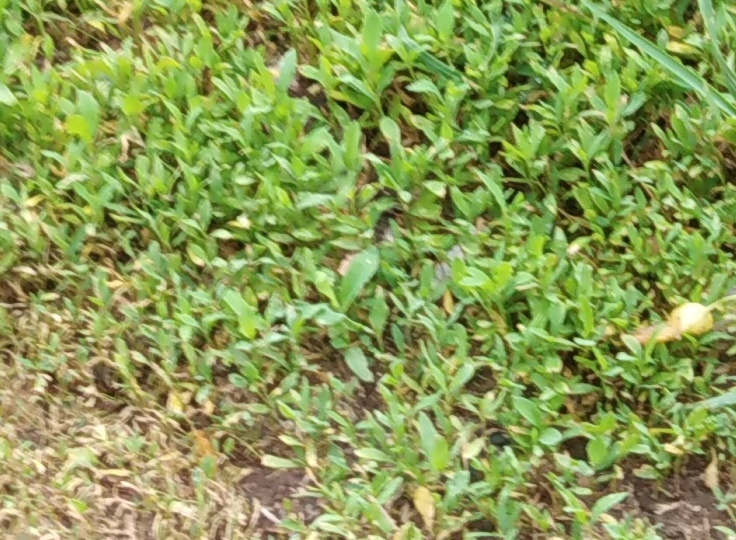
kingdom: Plantae
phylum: Tracheophyta
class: Magnoliopsida
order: Caryophyllales
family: Polygonaceae
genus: Polygonum
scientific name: Polygonum
